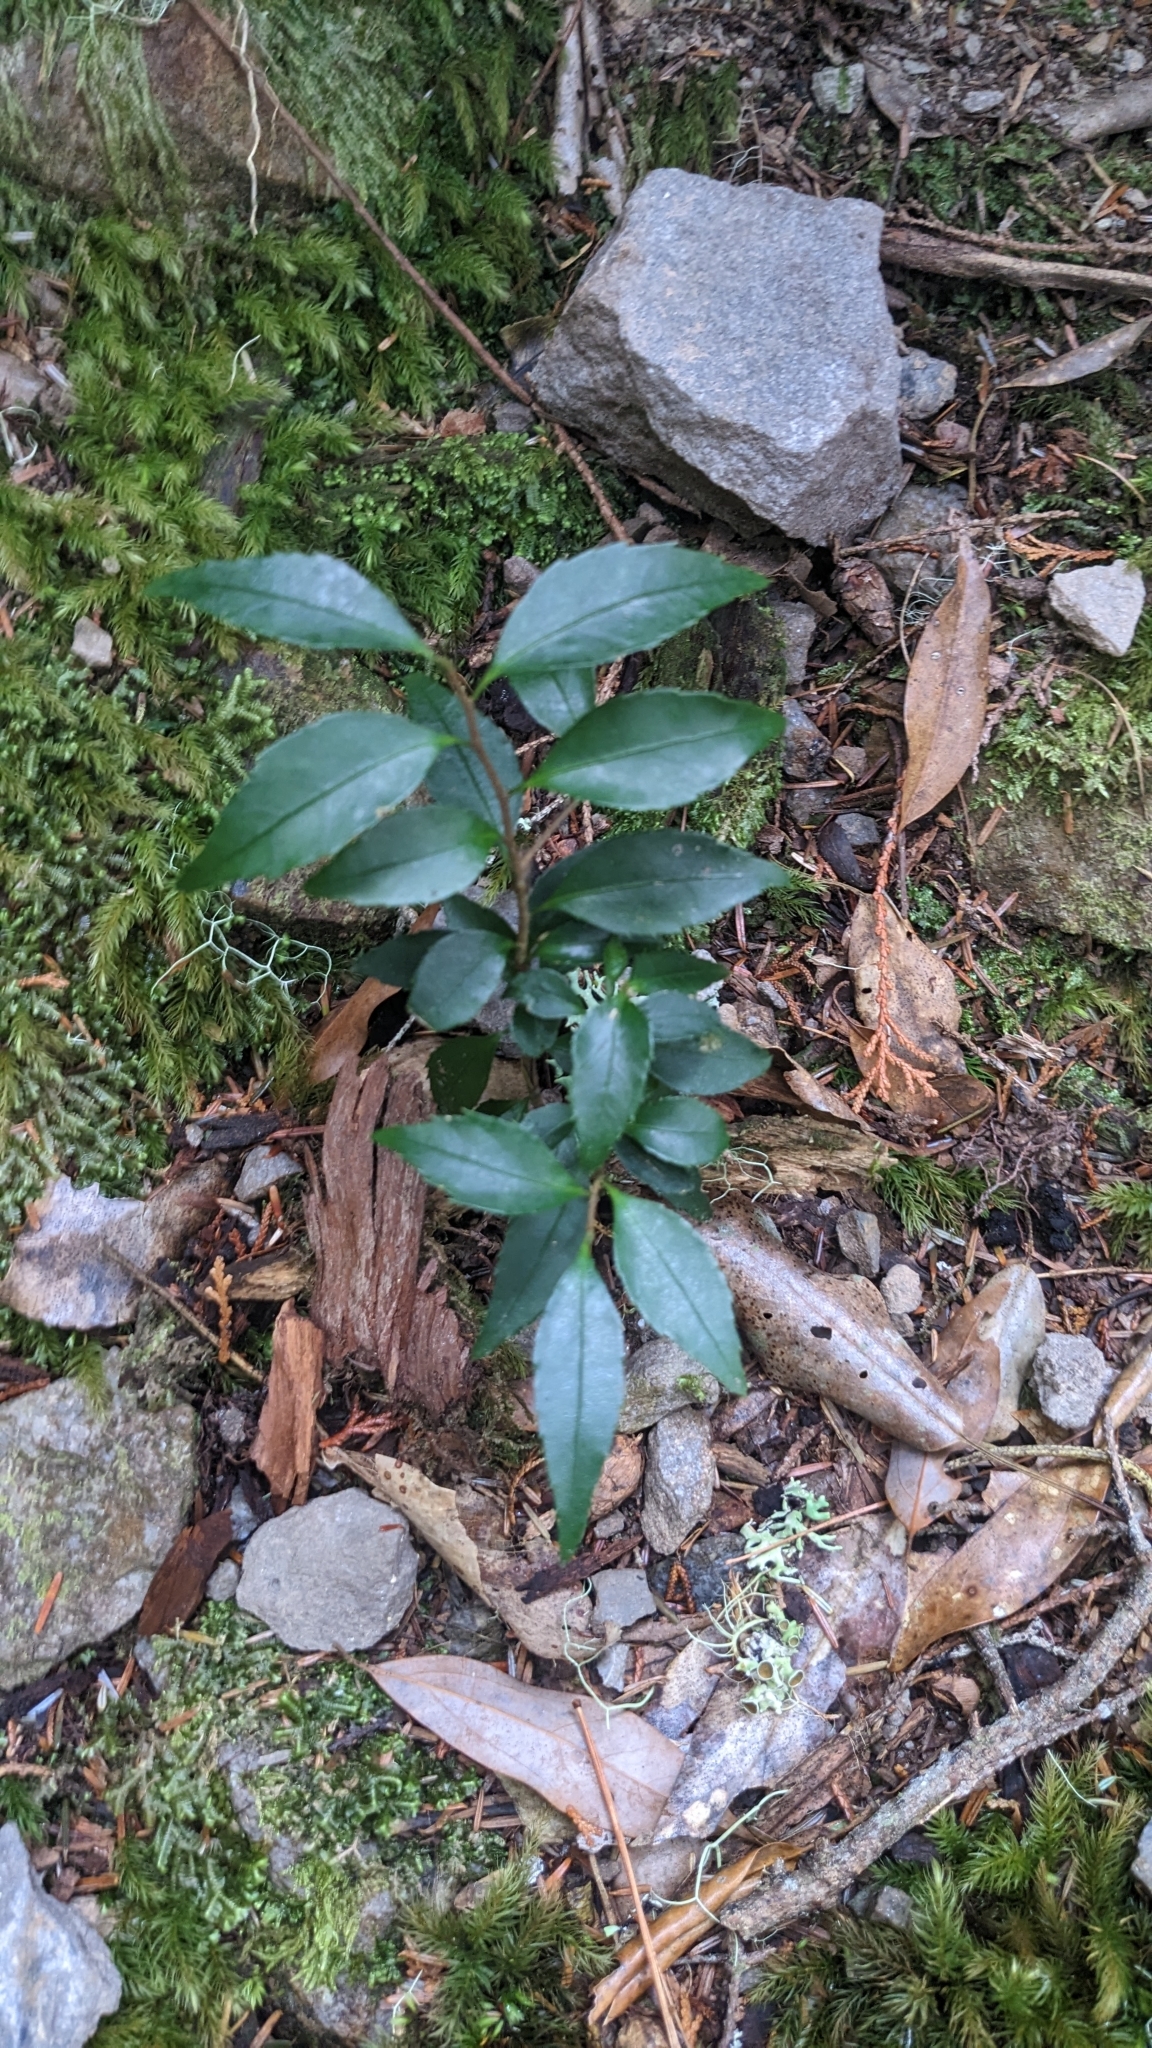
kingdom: Plantae
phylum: Tracheophyta
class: Magnoliopsida
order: Ericales
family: Symplocaceae
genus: Symplocos
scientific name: Symplocos anomala
